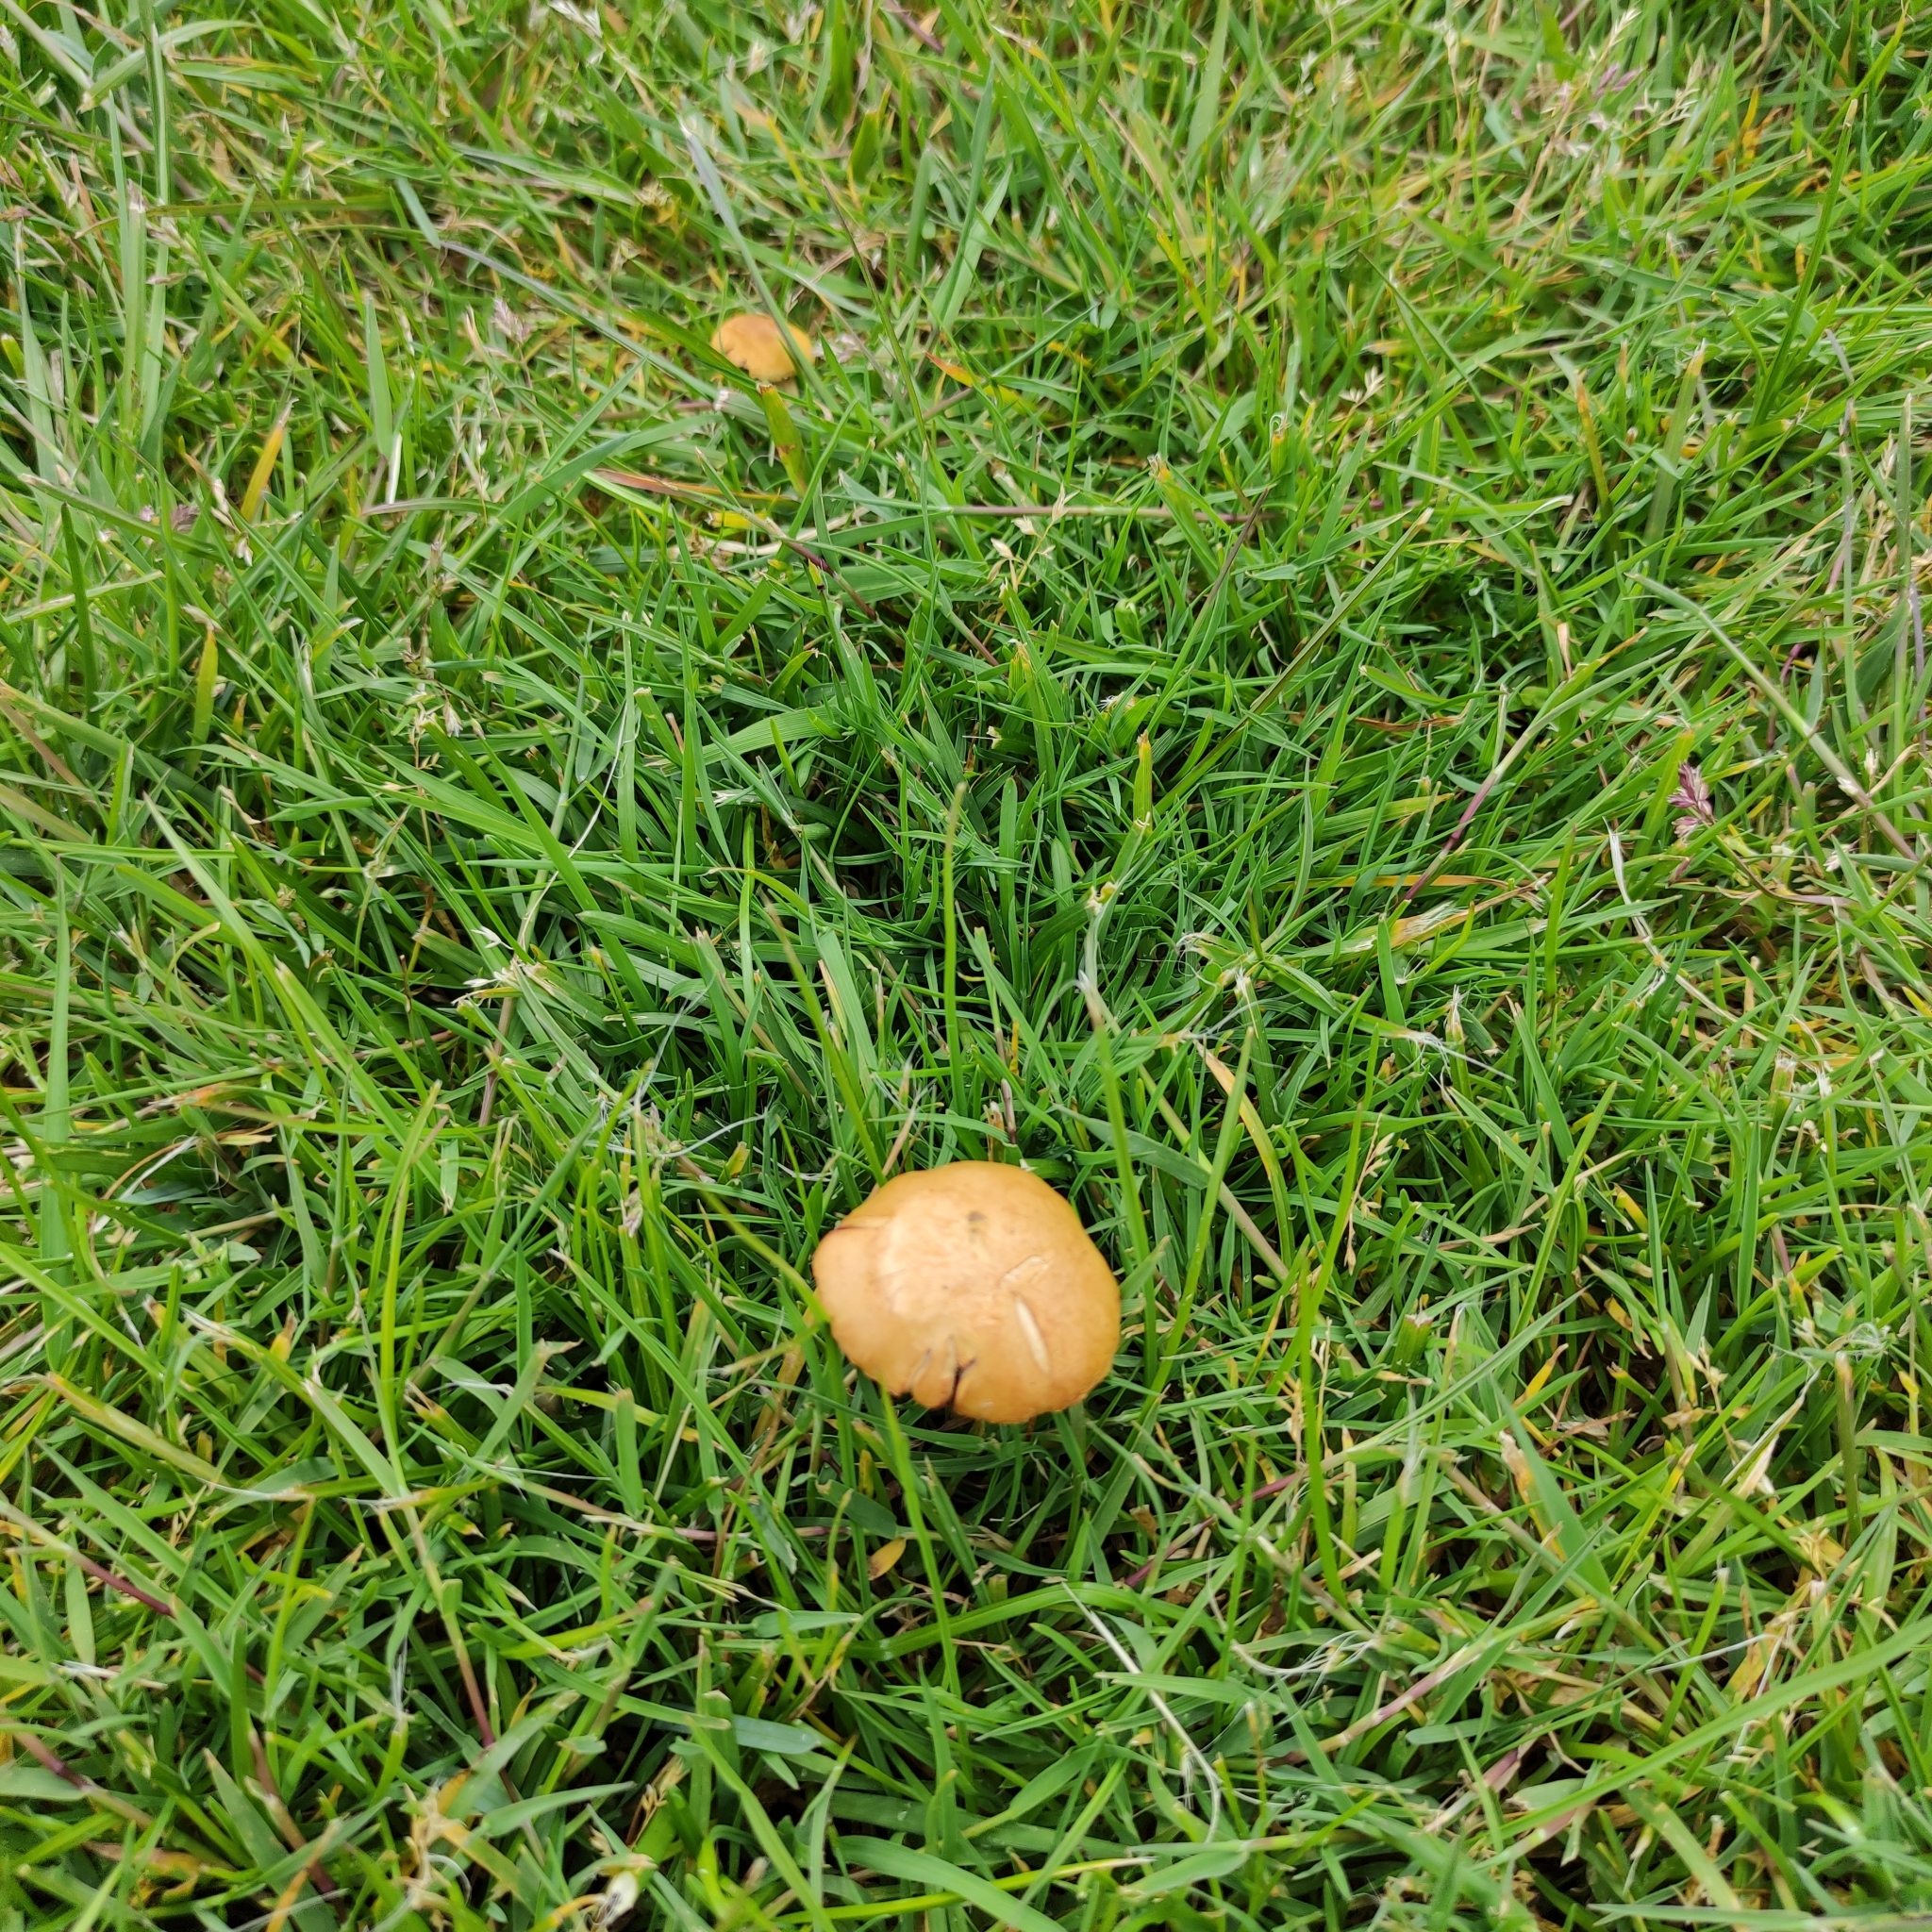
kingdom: Fungi
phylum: Basidiomycota
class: Agaricomycetes
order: Agaricales
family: Strophariaceae
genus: Agrocybe
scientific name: Agrocybe pediades
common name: Common fieldcap
